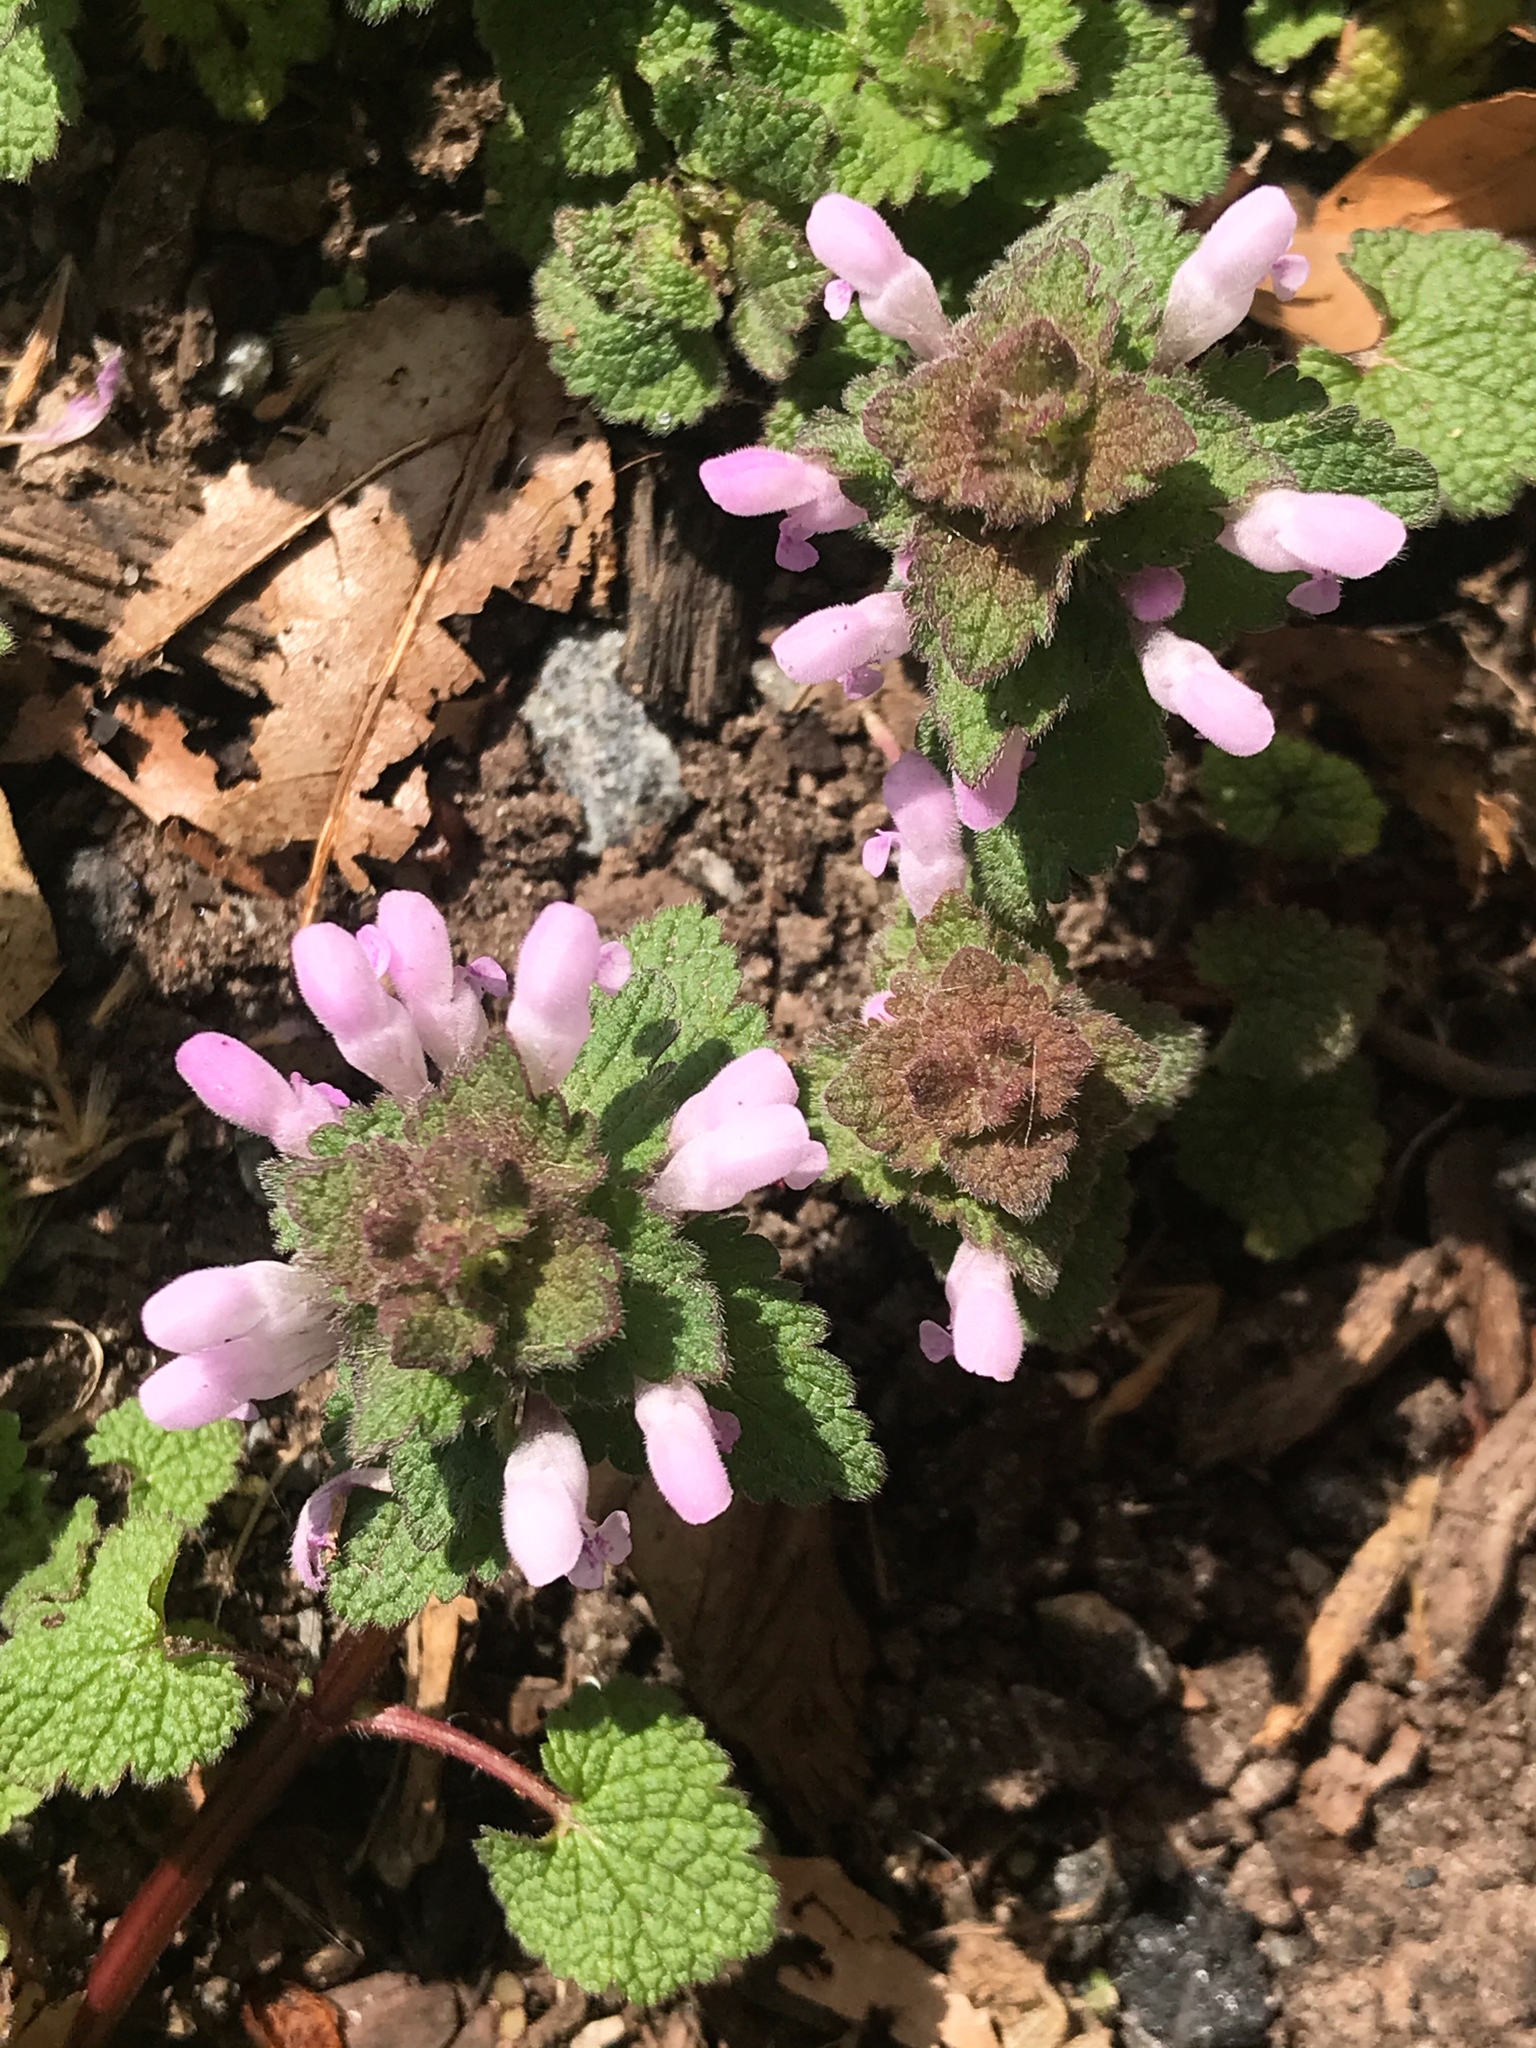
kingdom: Plantae
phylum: Tracheophyta
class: Magnoliopsida
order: Lamiales
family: Lamiaceae
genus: Lamium
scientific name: Lamium purpureum
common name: Red dead-nettle
